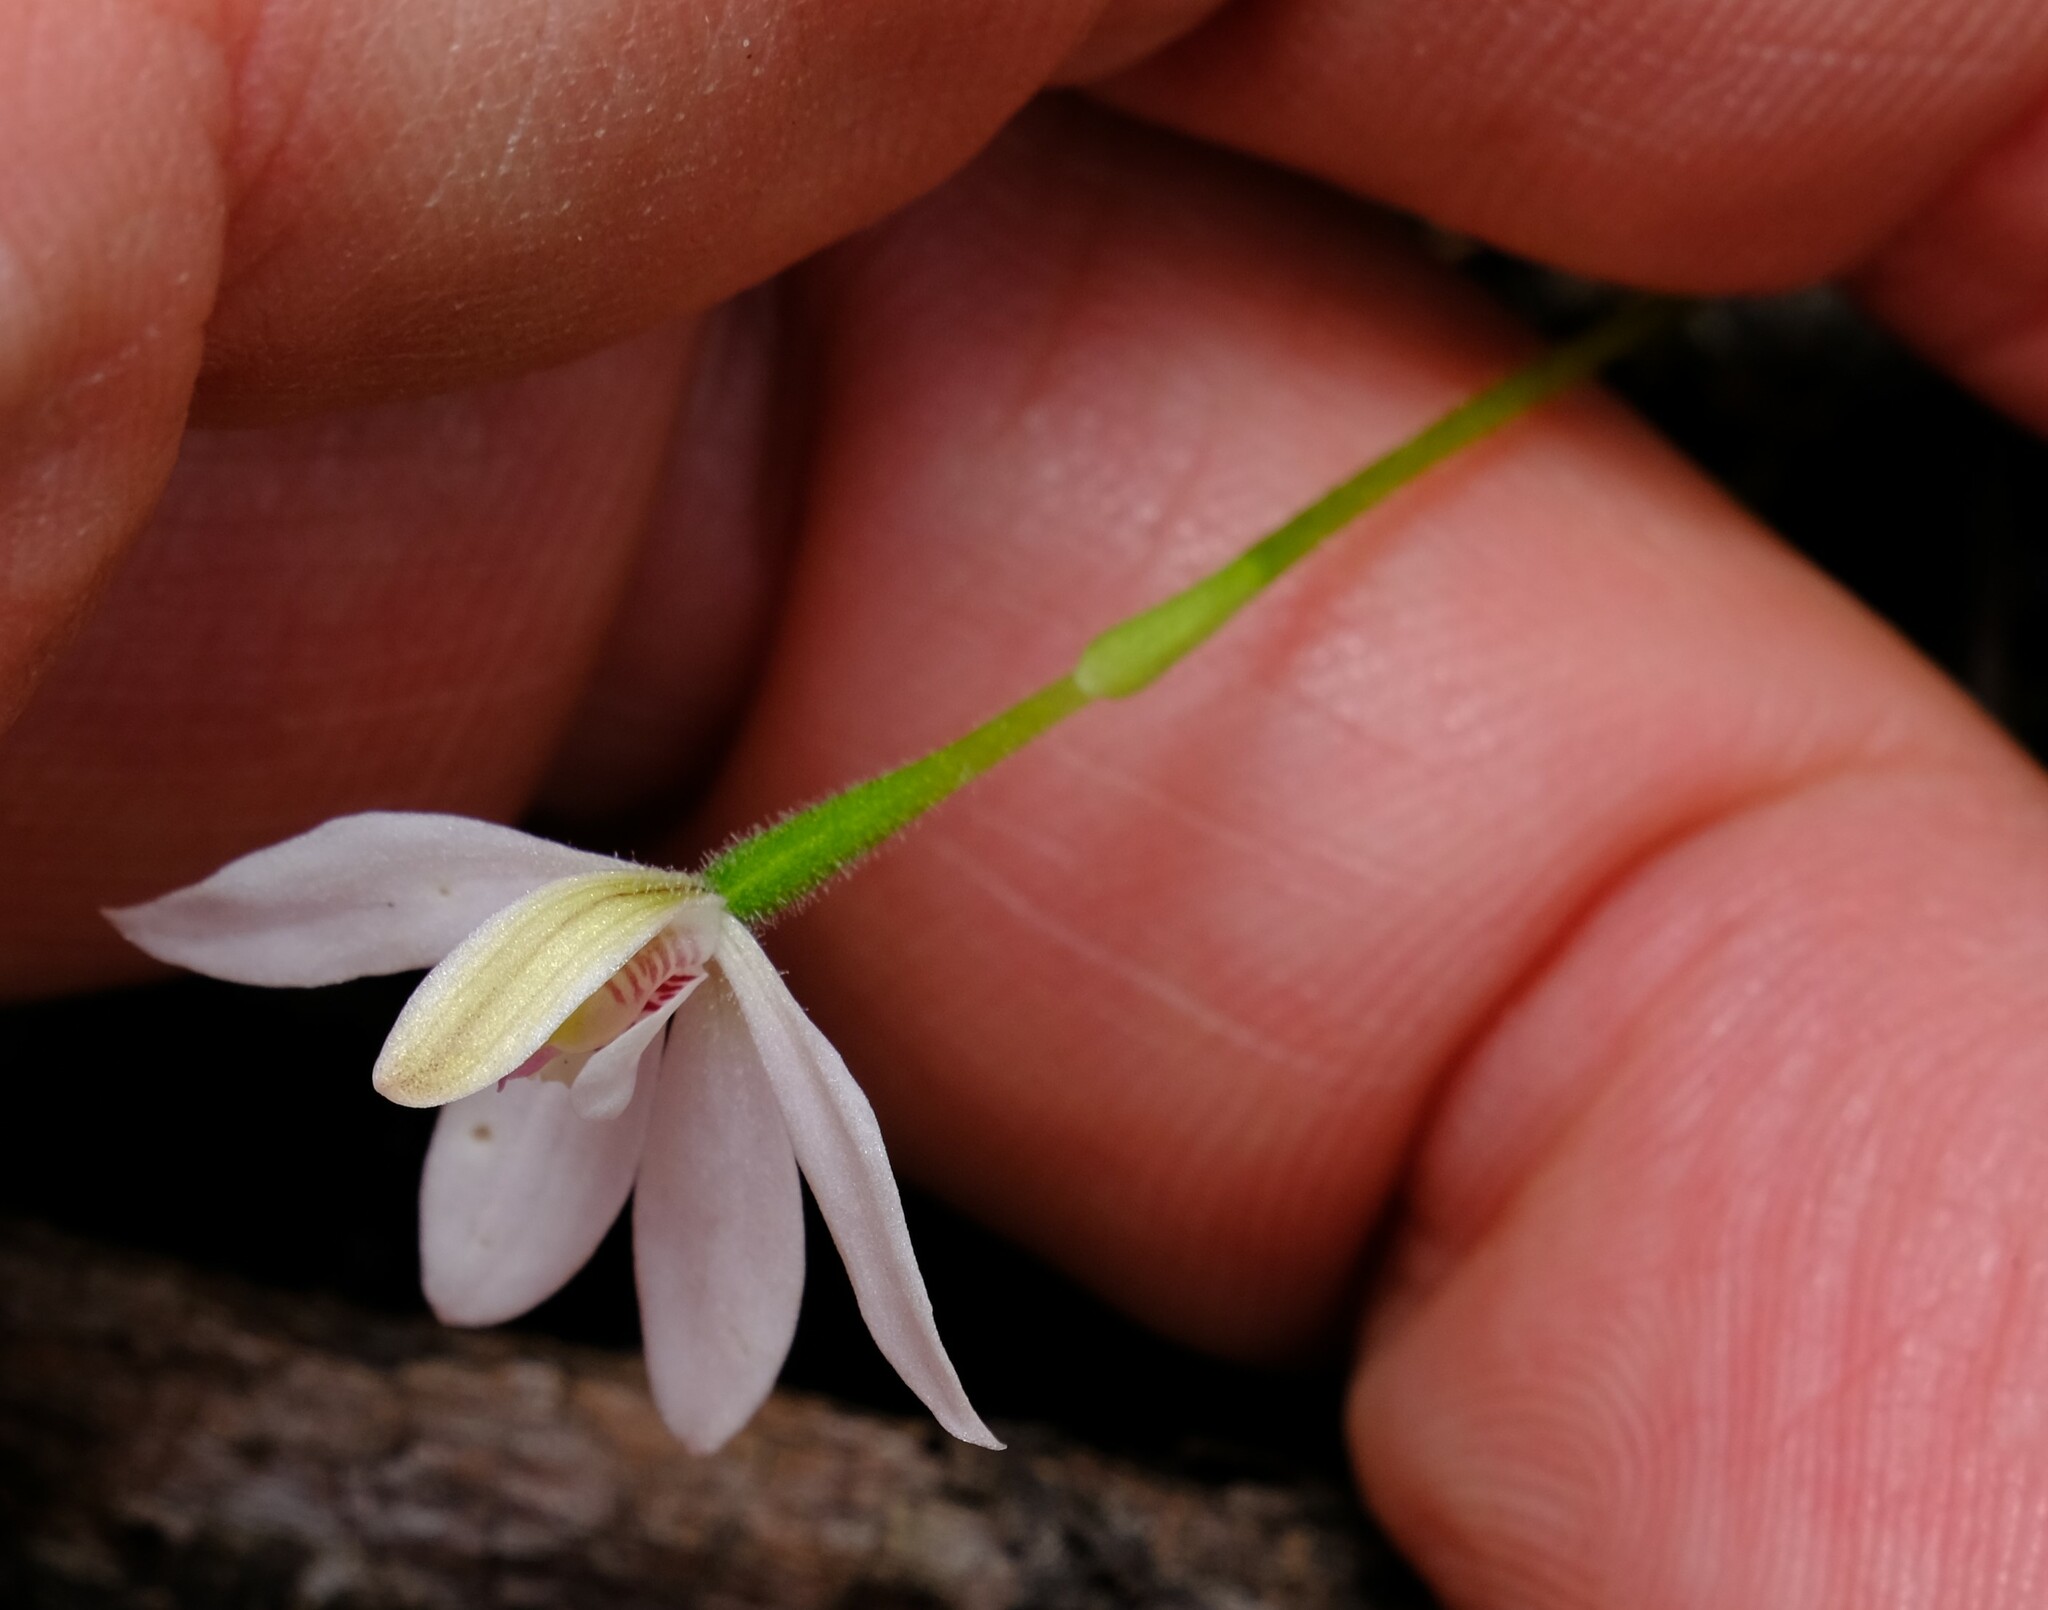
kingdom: Plantae
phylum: Tracheophyta
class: Liliopsida
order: Asparagales
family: Orchidaceae
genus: Caladenia
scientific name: Caladenia carnea
